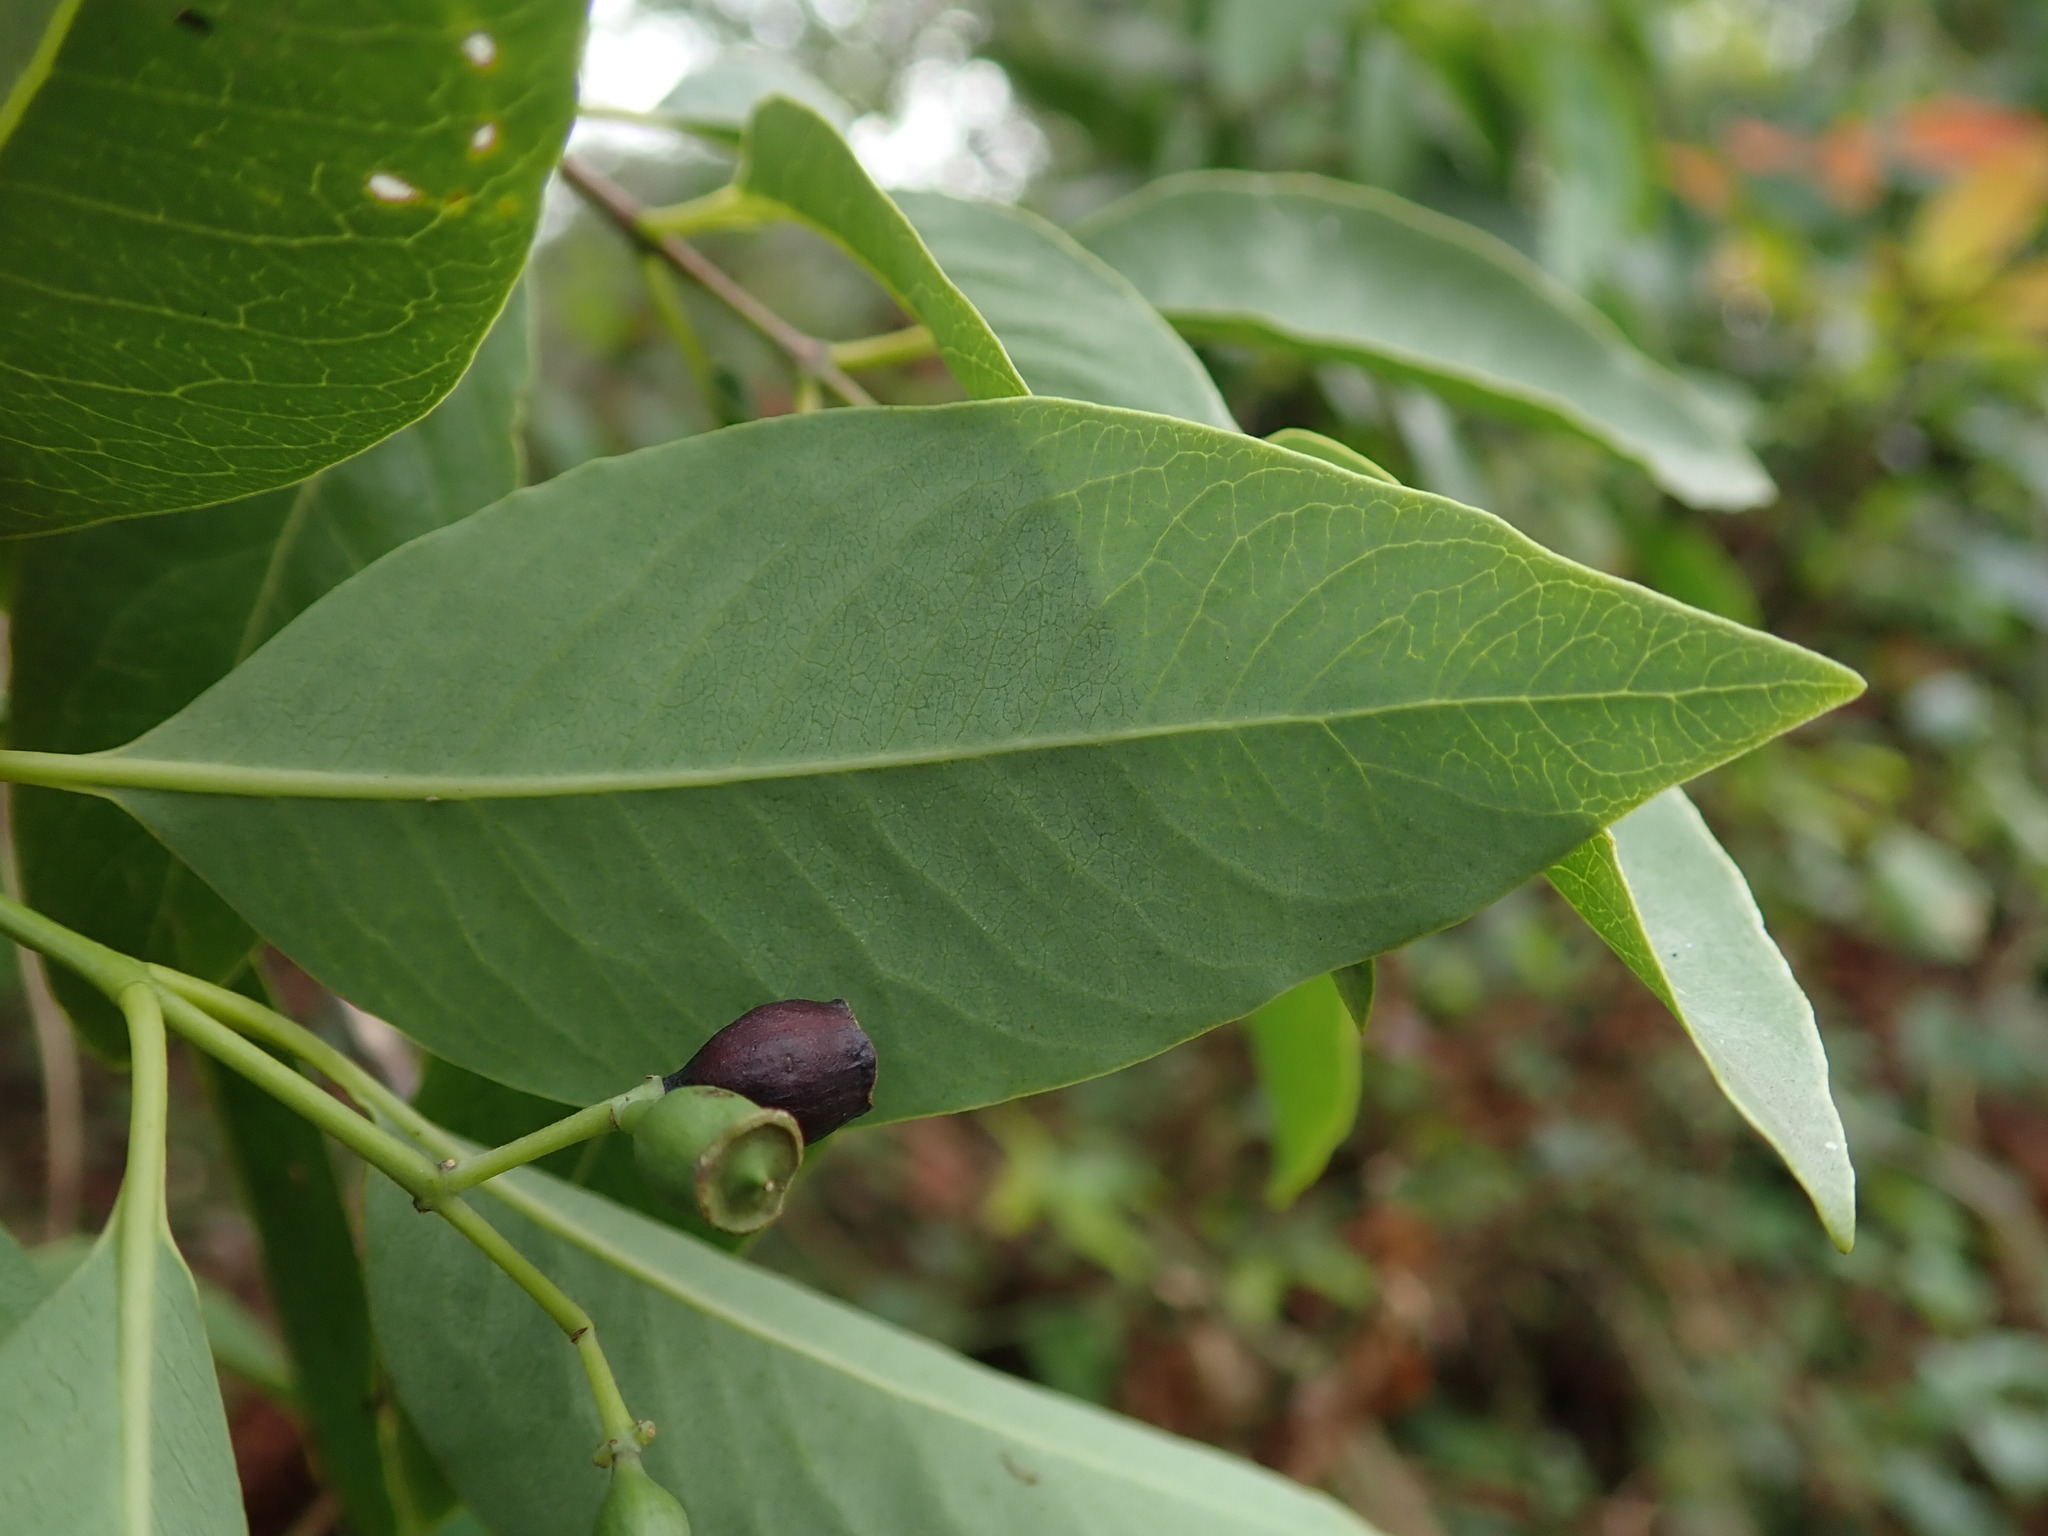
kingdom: Plantae
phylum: Tracheophyta
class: Magnoliopsida
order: Santalales
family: Santalaceae
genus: Santalum
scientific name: Santalum album
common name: Indian sandalwood
